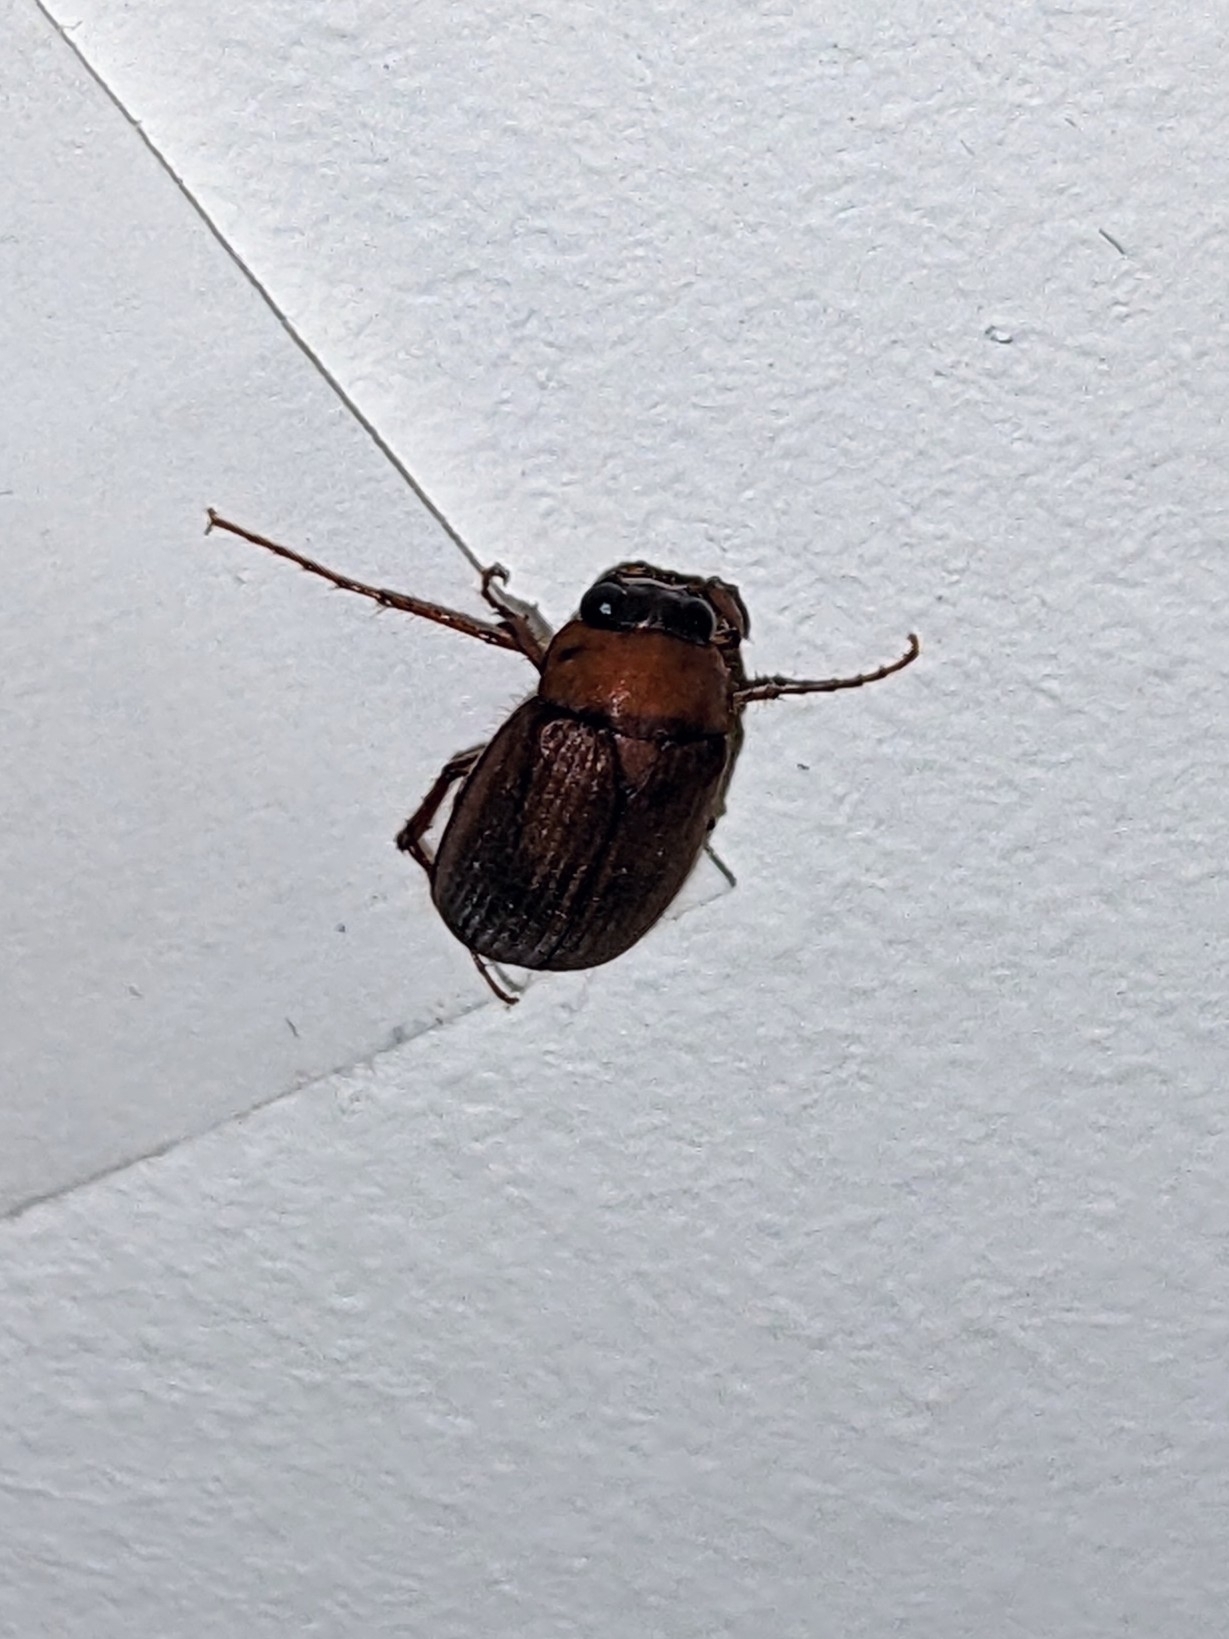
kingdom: Animalia
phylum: Arthropoda
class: Insecta
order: Coleoptera
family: Scarabaeidae
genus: Serica
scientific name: Serica brunnea
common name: Brown chafer
